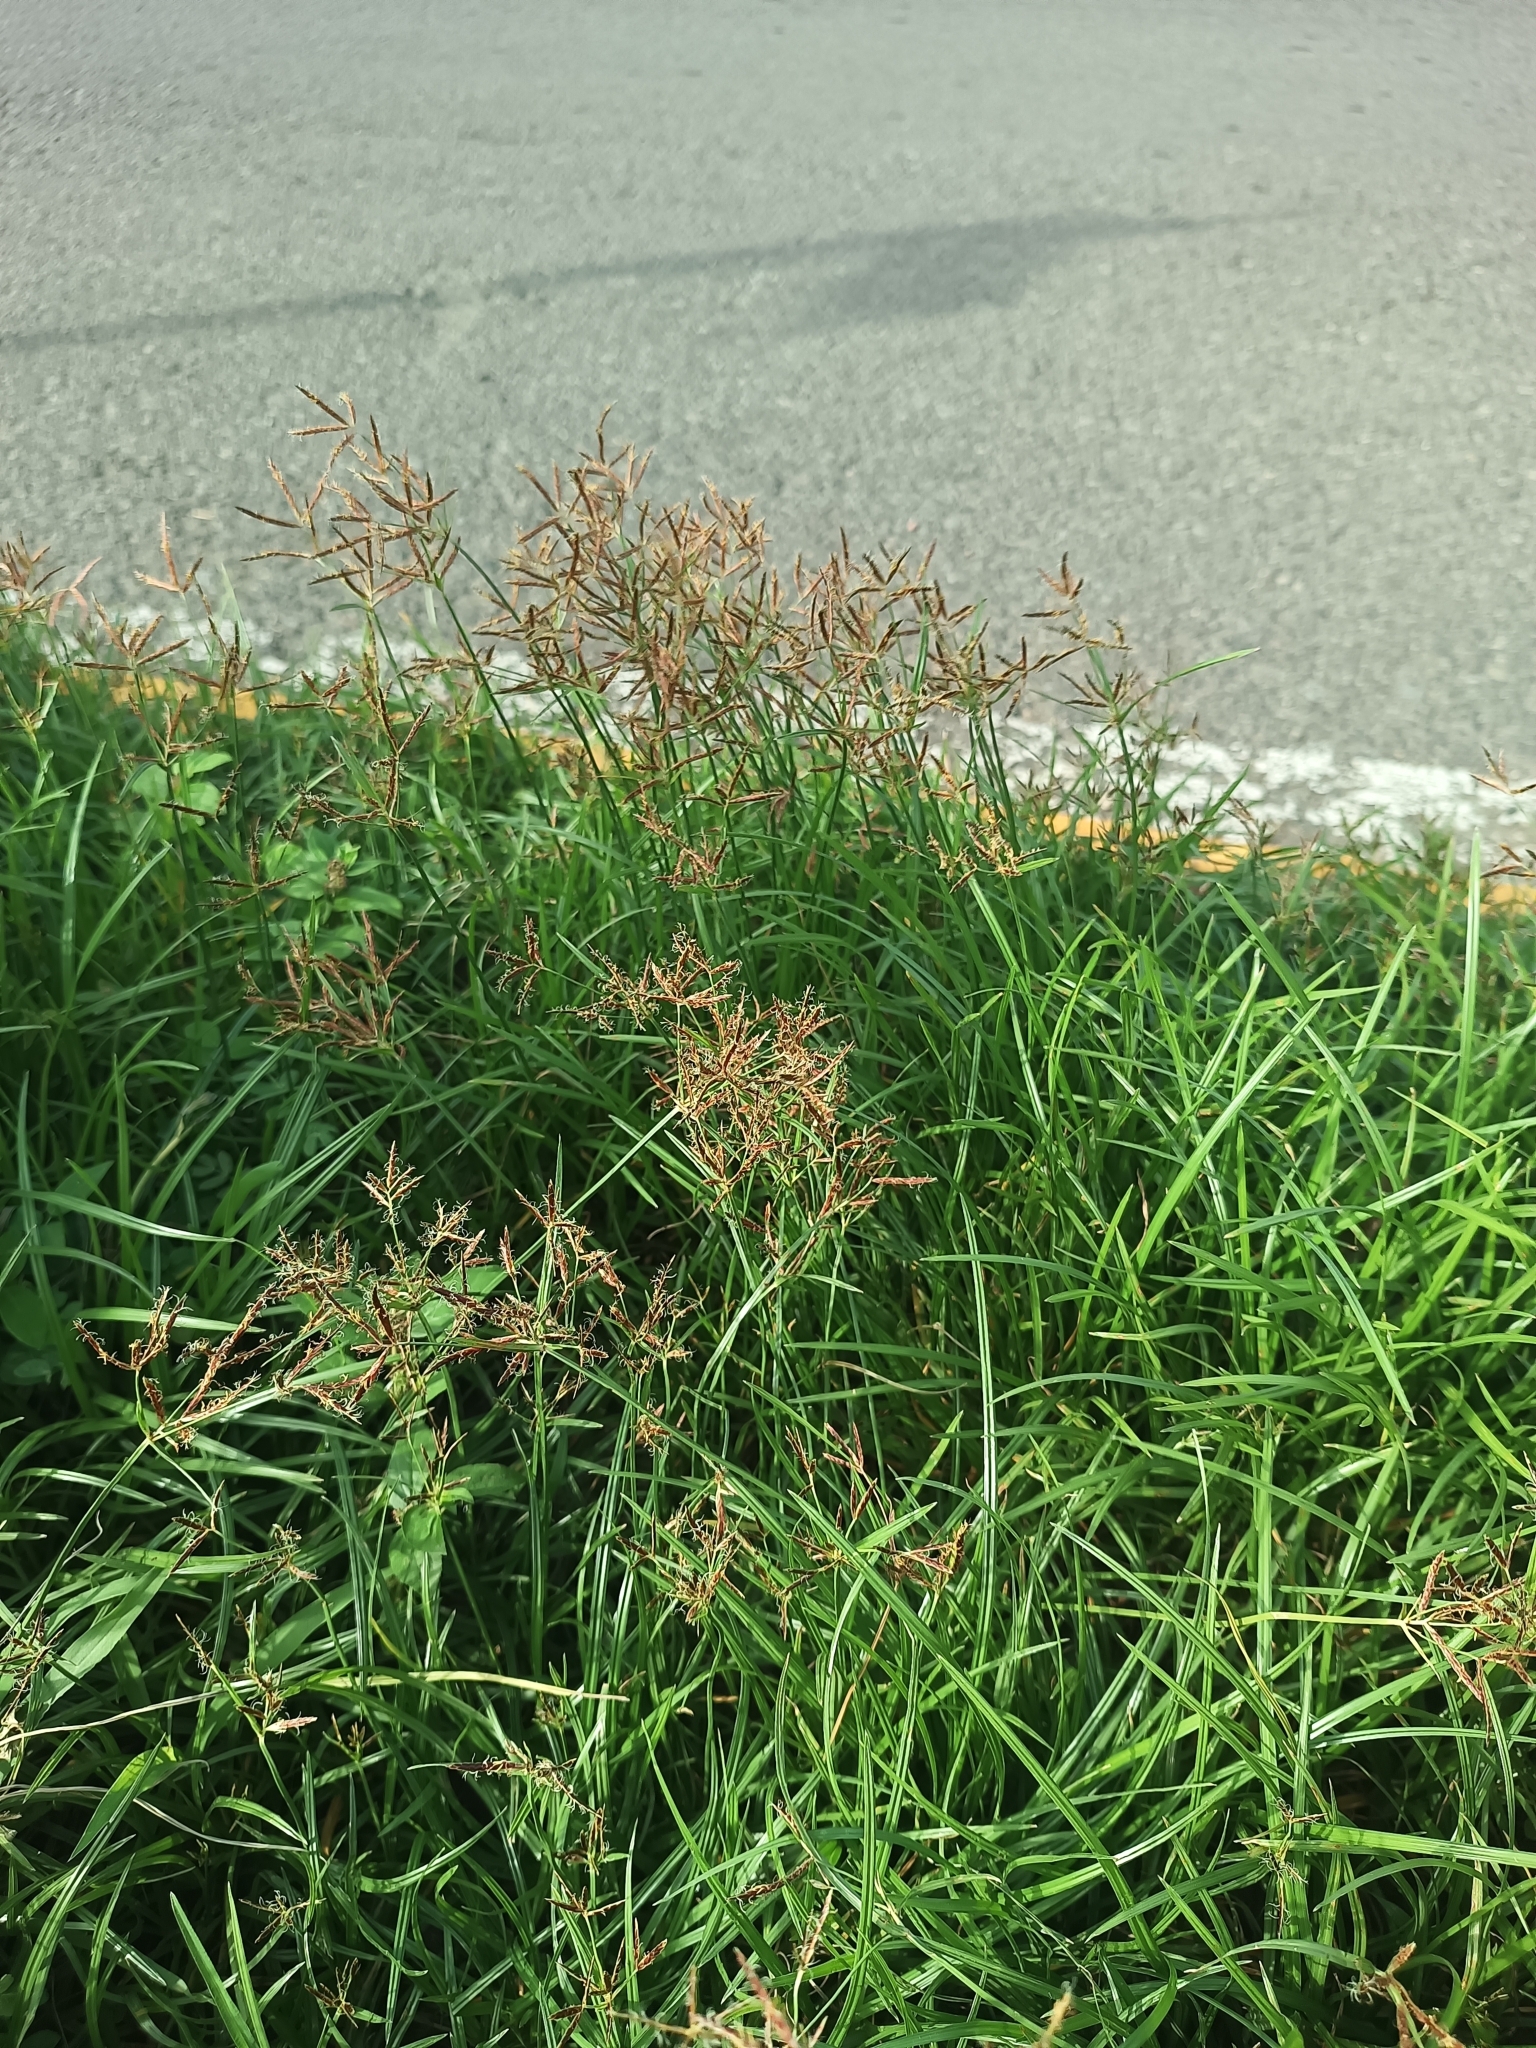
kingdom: Plantae
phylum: Tracheophyta
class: Liliopsida
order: Poales
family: Cyperaceae
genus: Cyperus
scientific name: Cyperus rotundus
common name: Nutgrass
